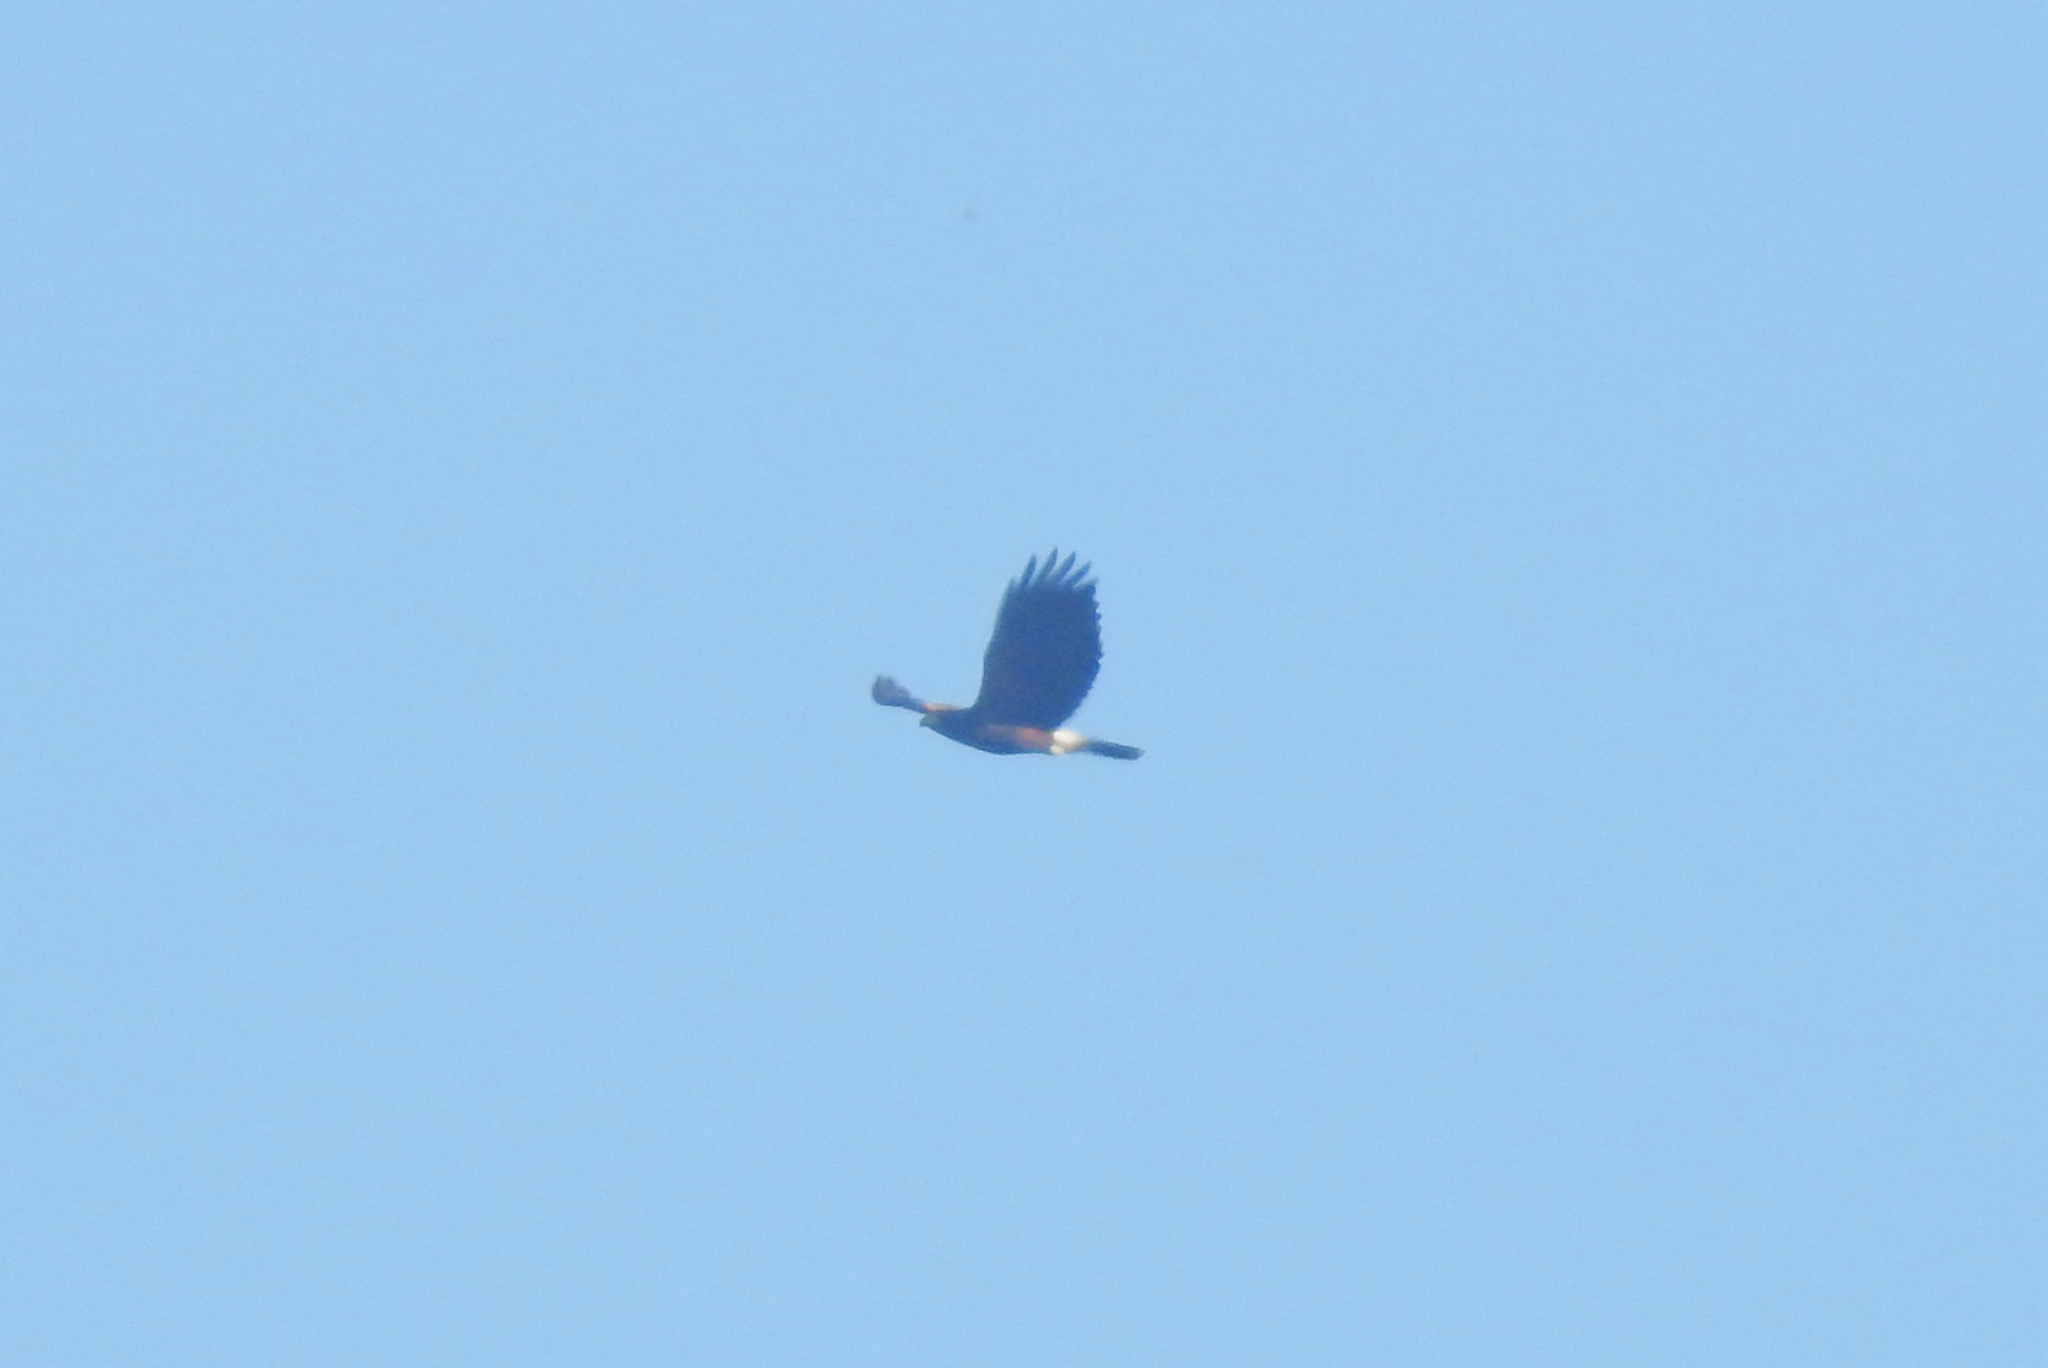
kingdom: Animalia
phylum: Chordata
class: Aves
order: Accipitriformes
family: Accipitridae
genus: Parabuteo
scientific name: Parabuteo unicinctus
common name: Harris's hawk
